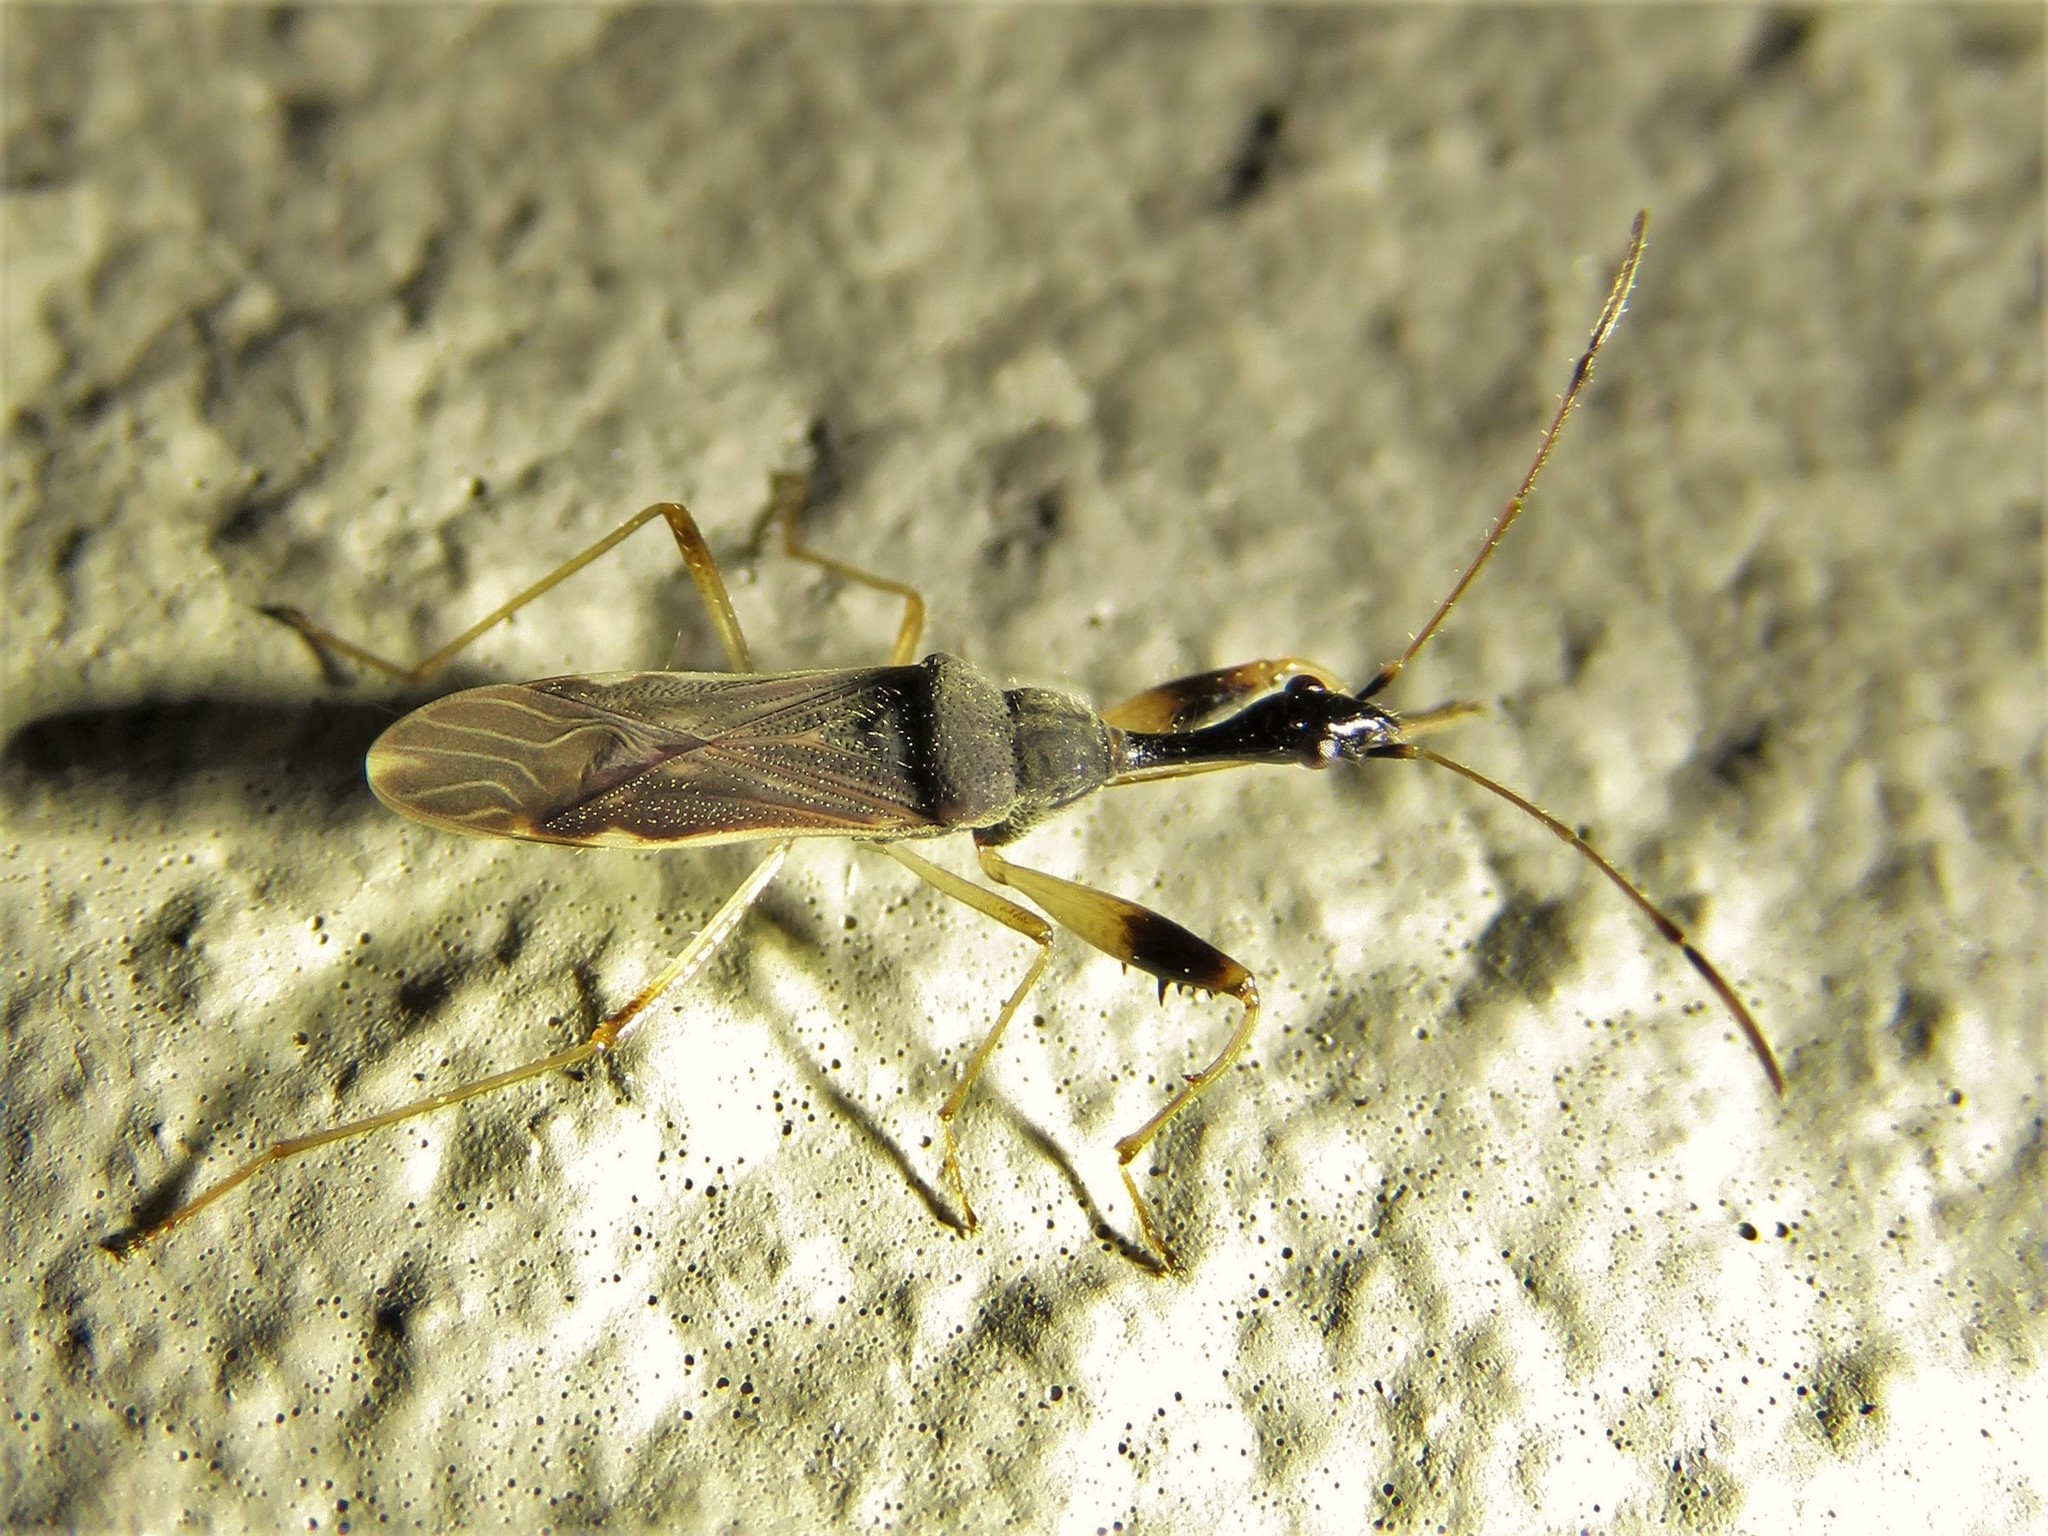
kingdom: Animalia
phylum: Arthropoda
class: Insecta
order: Hemiptera
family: Rhyparochromidae
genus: Myodocha
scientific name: Myodocha serripes
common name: Long-necked seed bug
